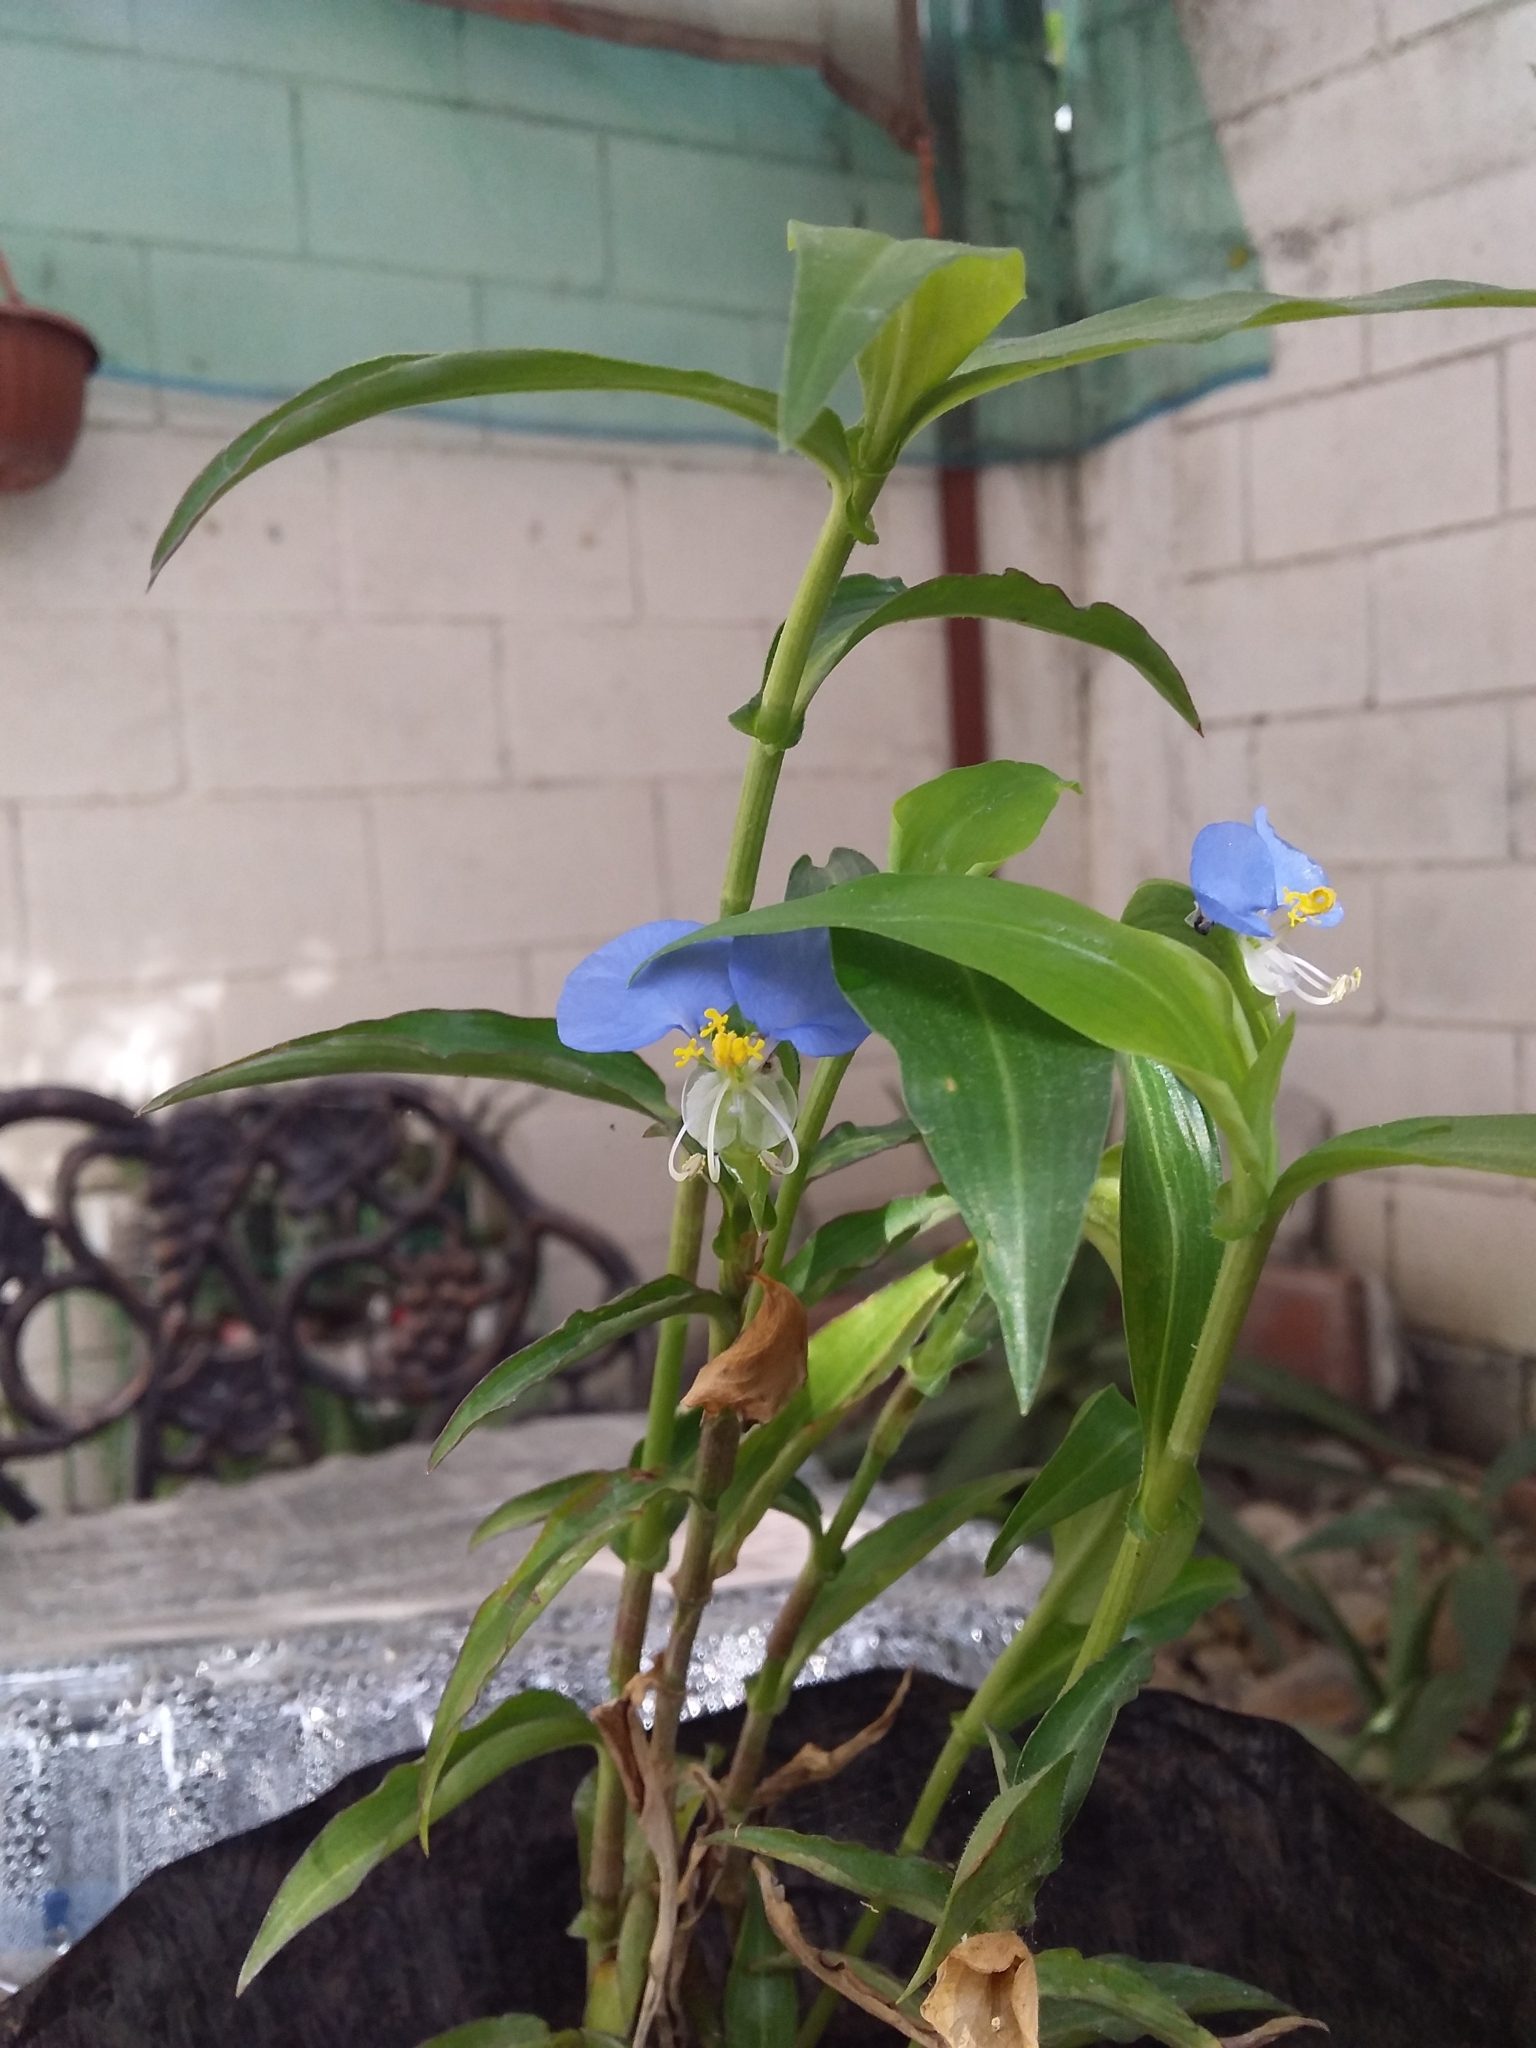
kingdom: Plantae
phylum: Tracheophyta
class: Liliopsida
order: Commelinales
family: Commelinaceae
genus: Commelina
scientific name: Commelina erecta
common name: Blousel blommetjie
